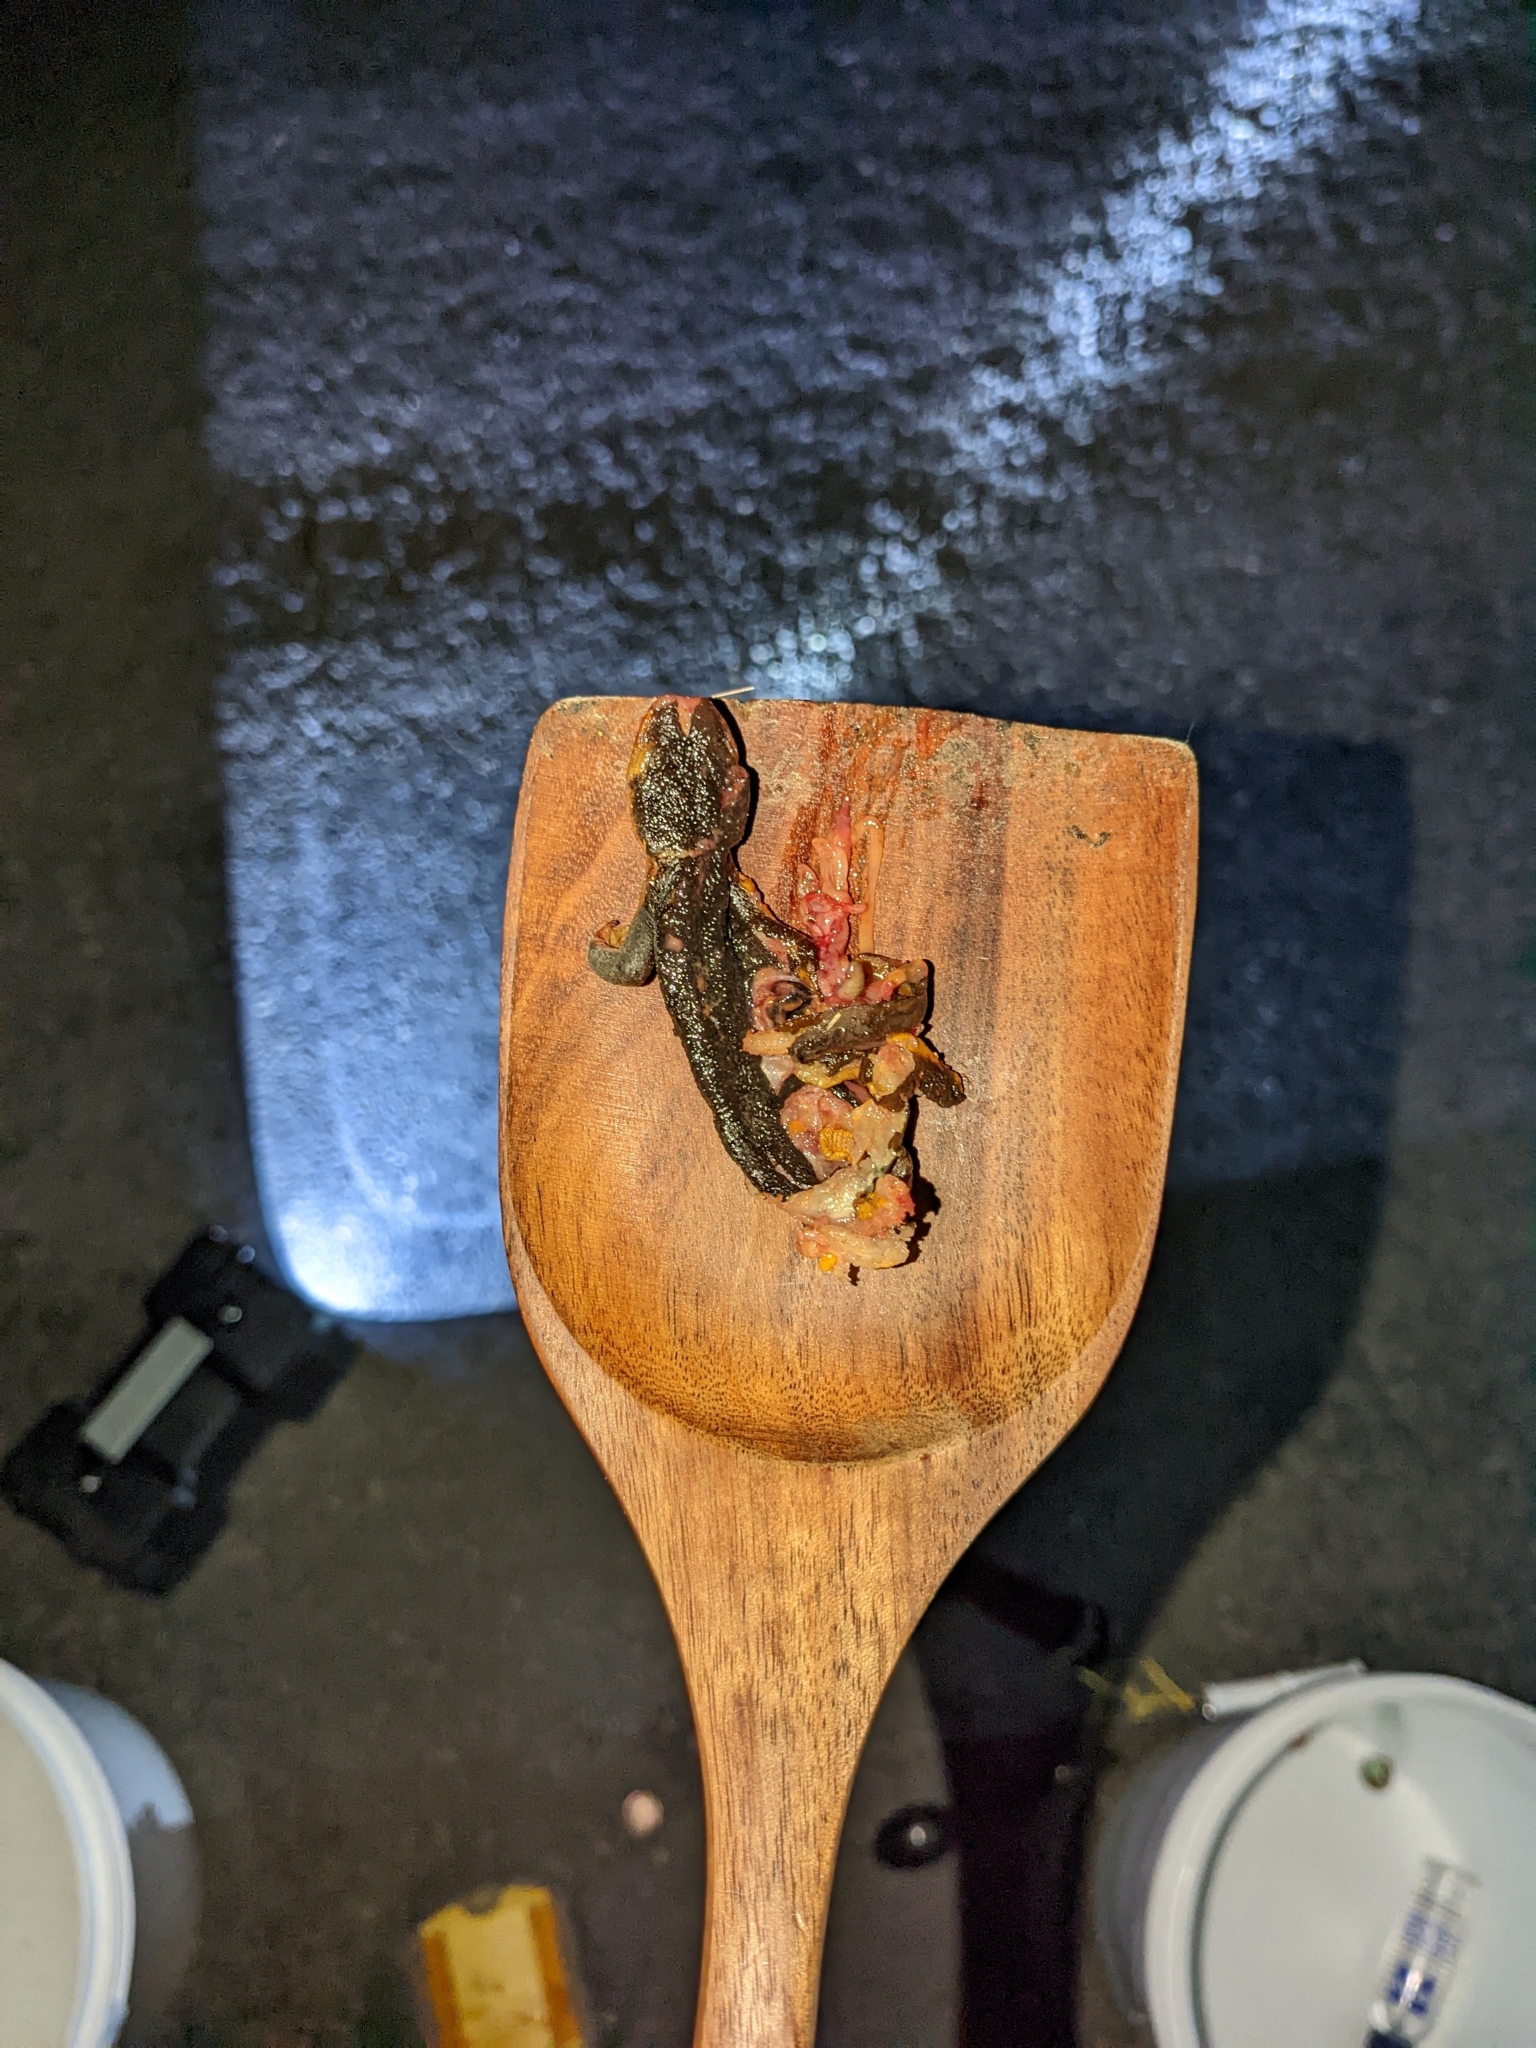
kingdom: Animalia
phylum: Chordata
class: Amphibia
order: Caudata
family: Salamandridae
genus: Taricha
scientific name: Taricha
